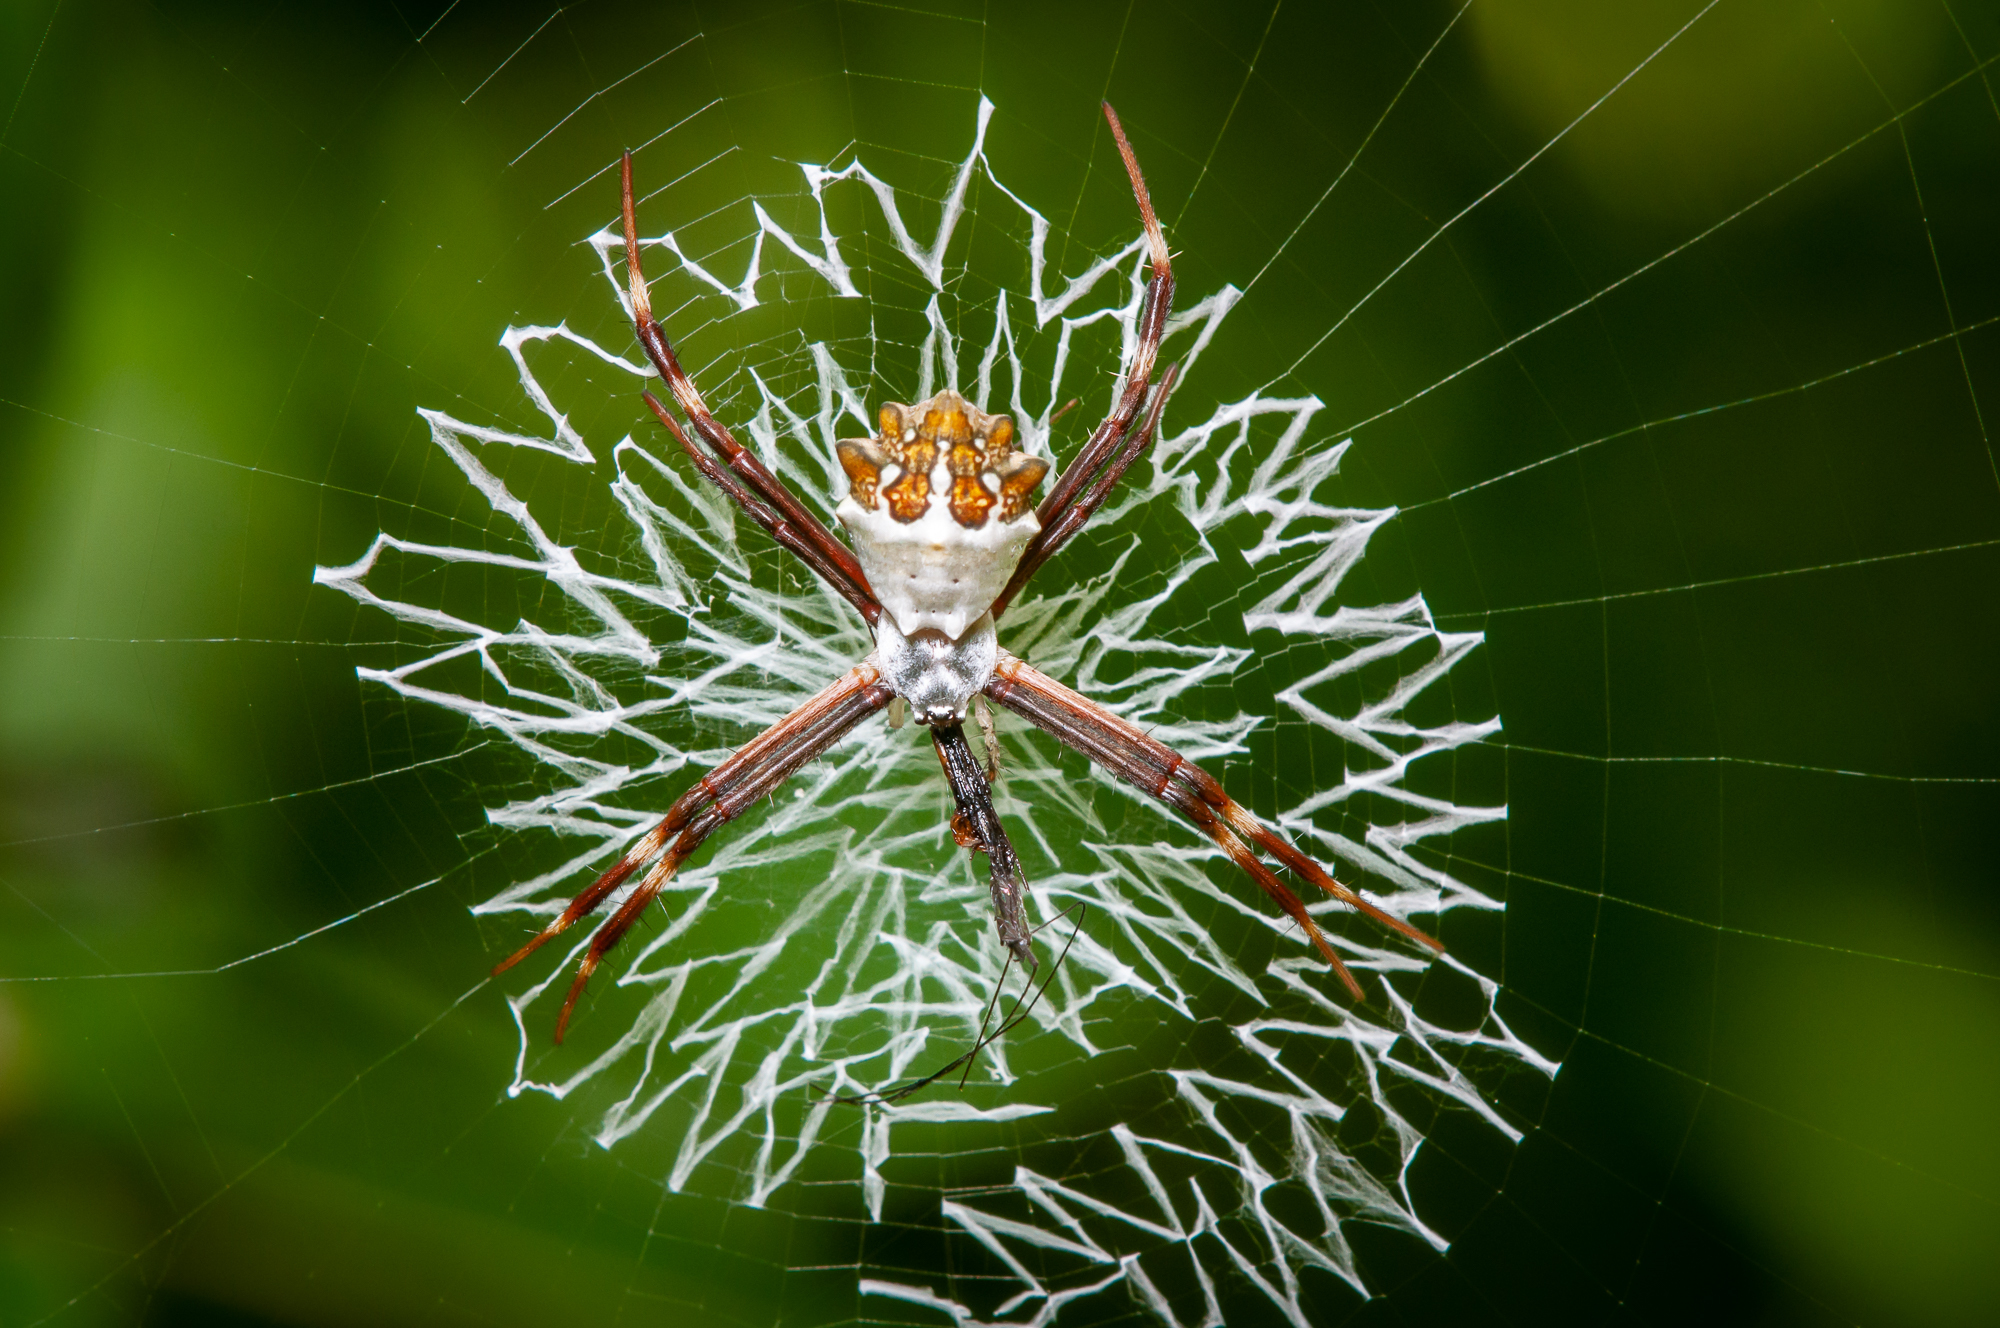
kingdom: Animalia
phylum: Arthropoda
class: Arachnida
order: Araneae
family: Araneidae
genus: Argiope
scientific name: Argiope argentata
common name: Orb weavers
